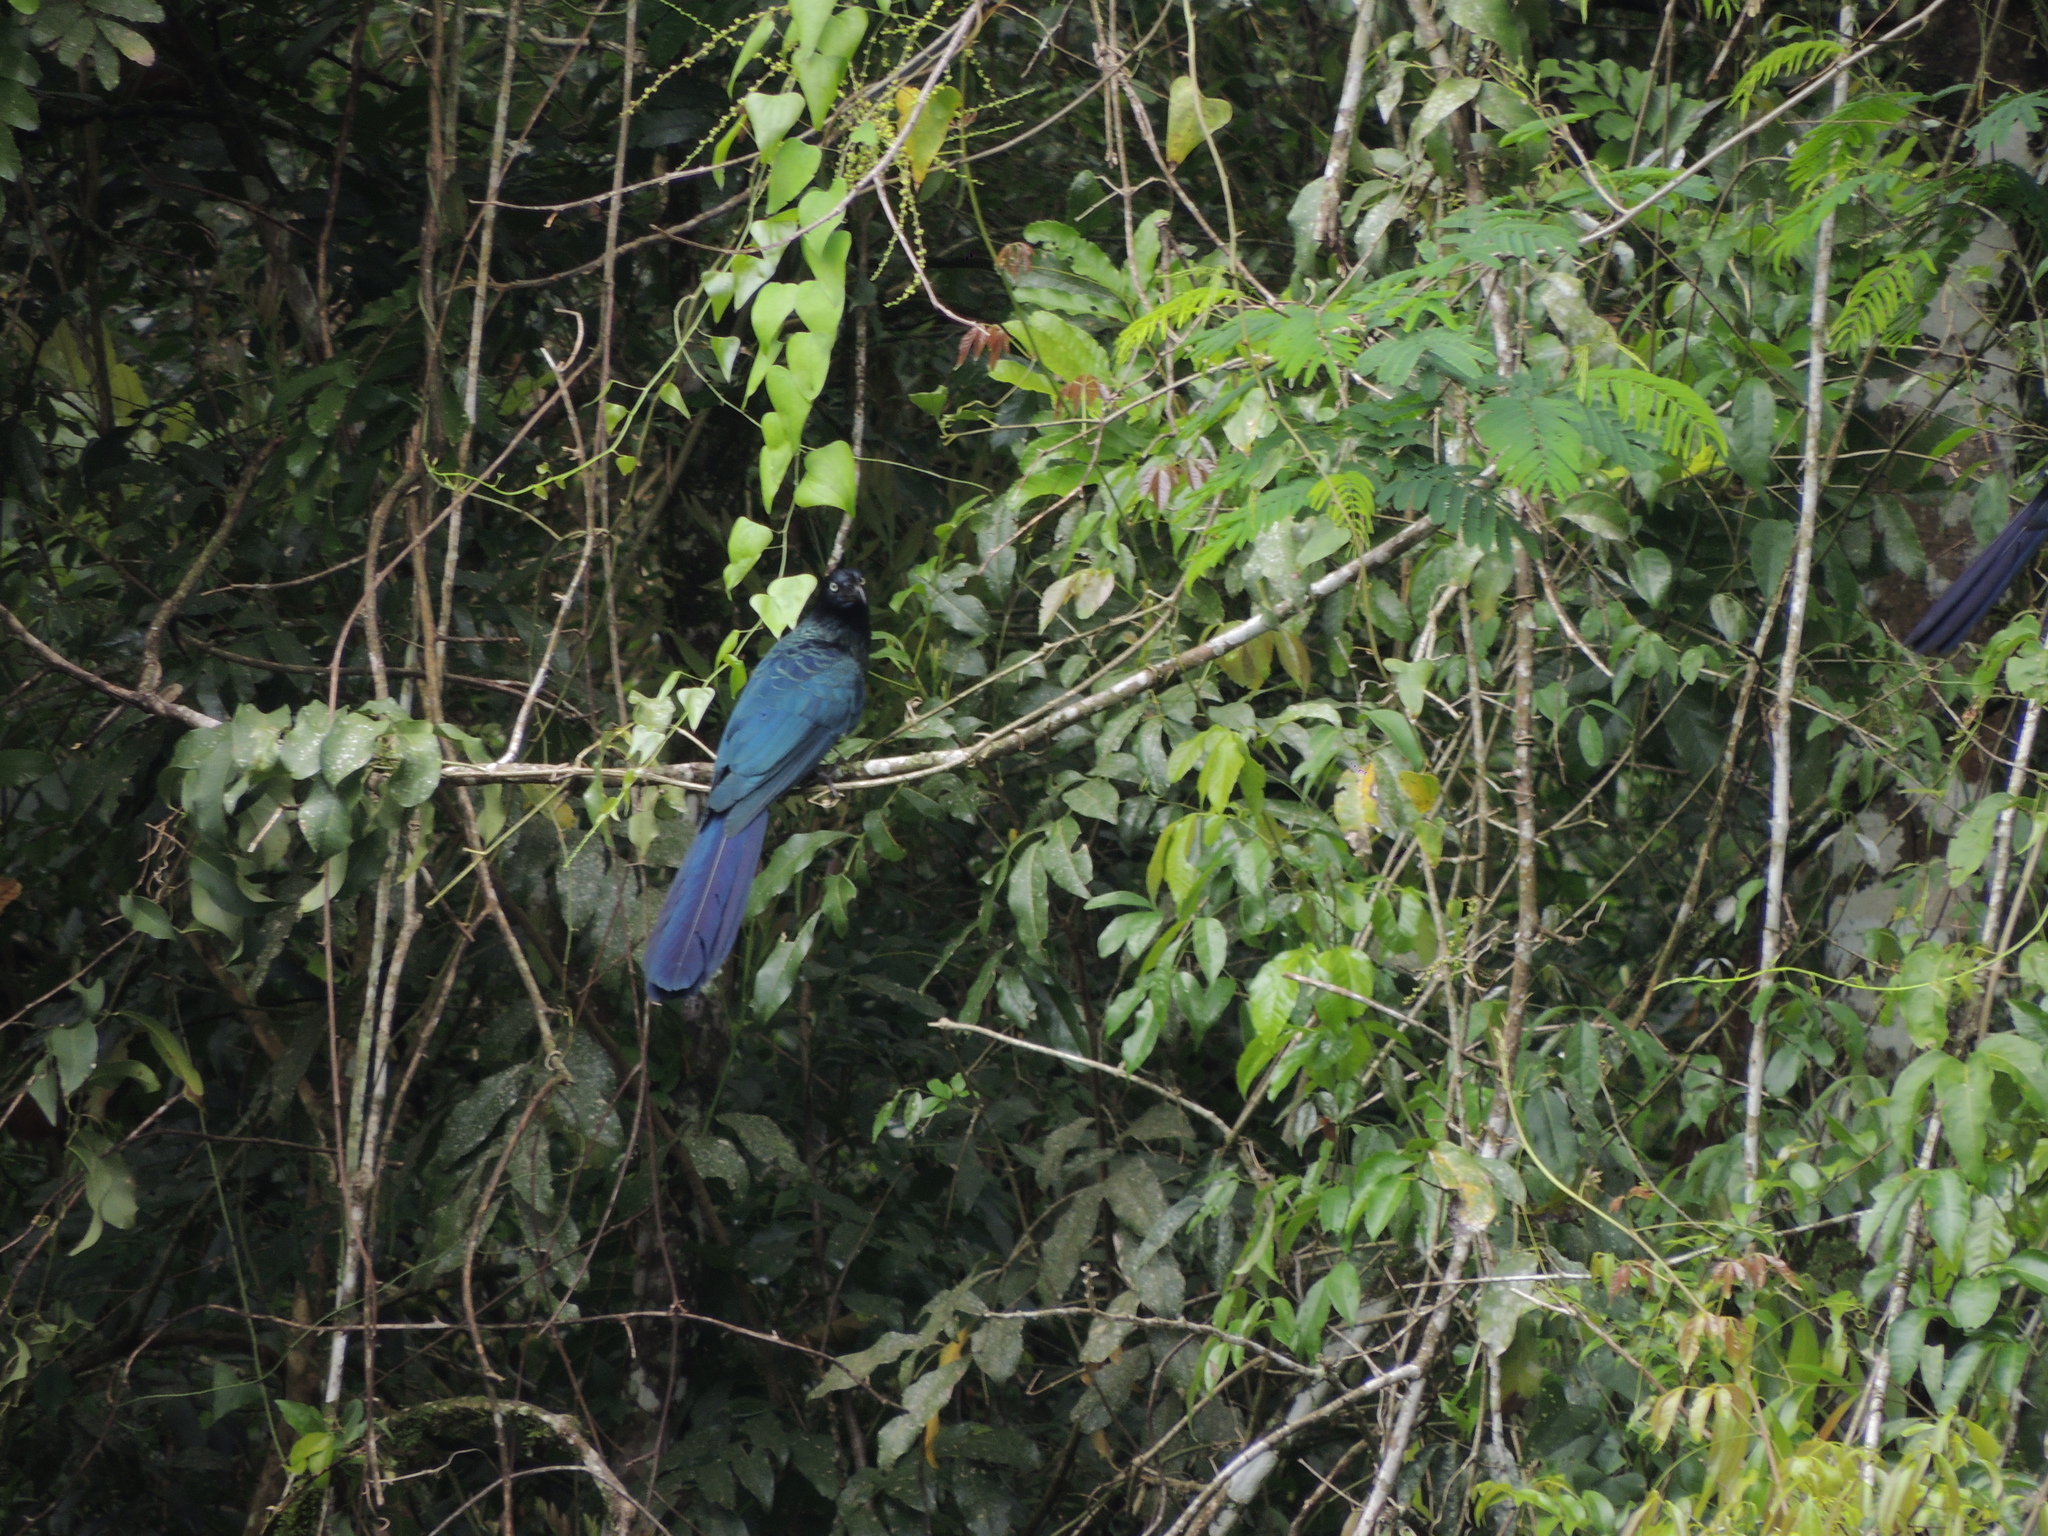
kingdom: Animalia
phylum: Chordata
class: Aves
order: Cuculiformes
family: Cuculidae
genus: Crotophaga
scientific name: Crotophaga major
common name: Greater ani
